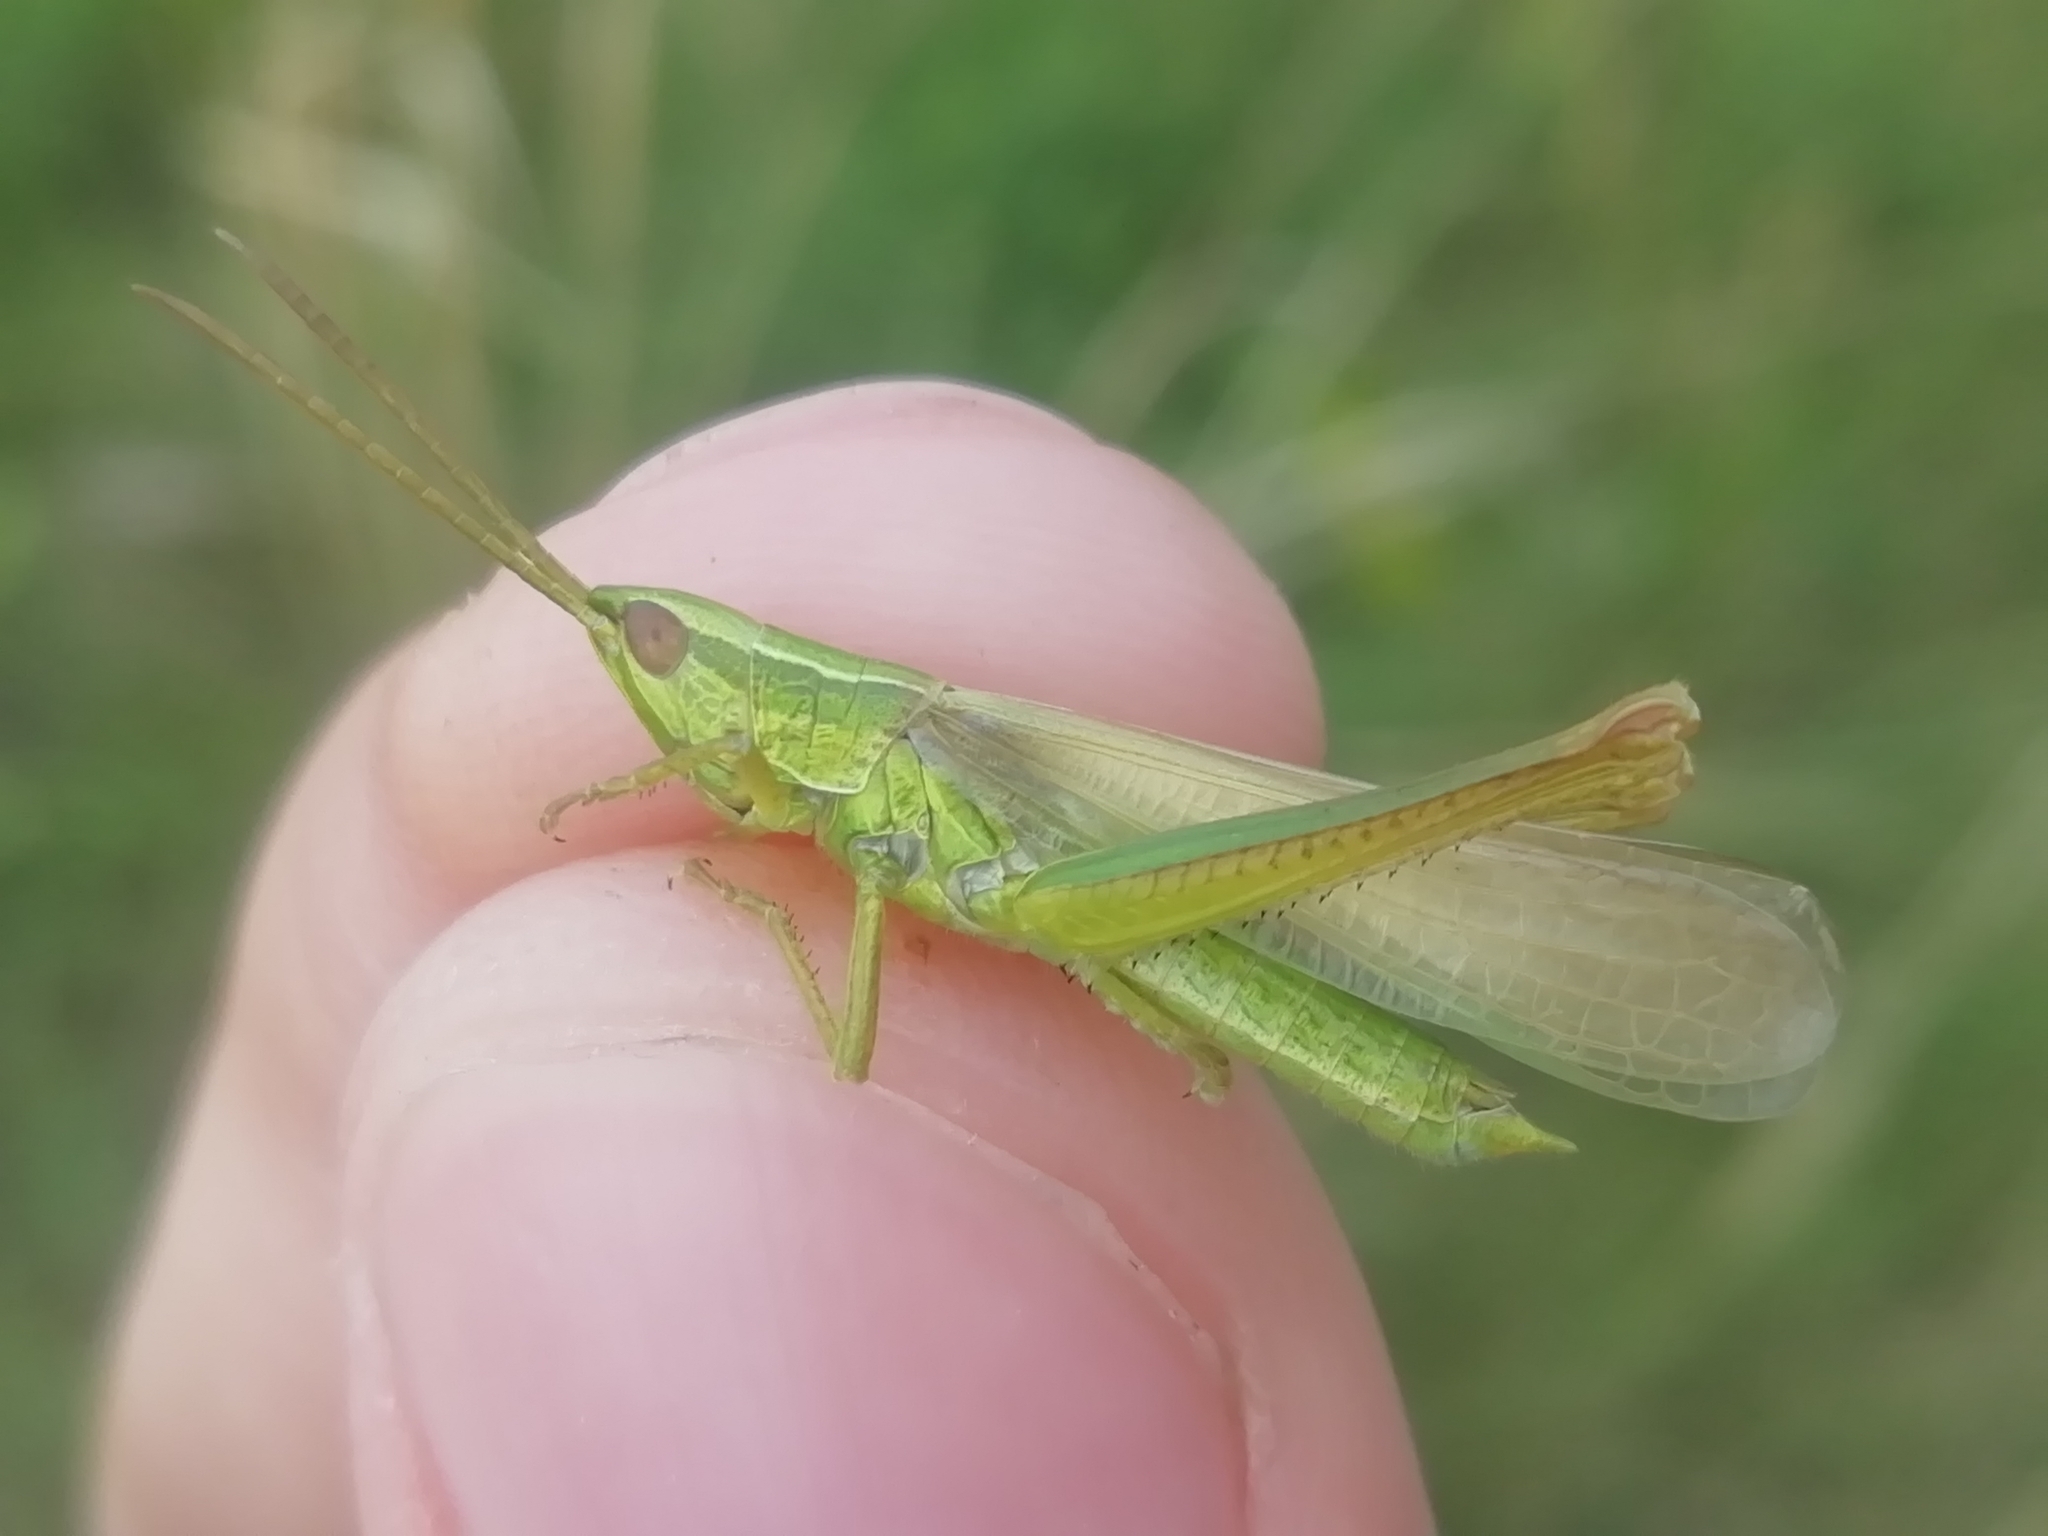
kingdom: Animalia
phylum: Arthropoda
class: Insecta
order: Orthoptera
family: Acrididae
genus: Euthystira
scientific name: Euthystira brachyptera
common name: Small gold grasshopper
